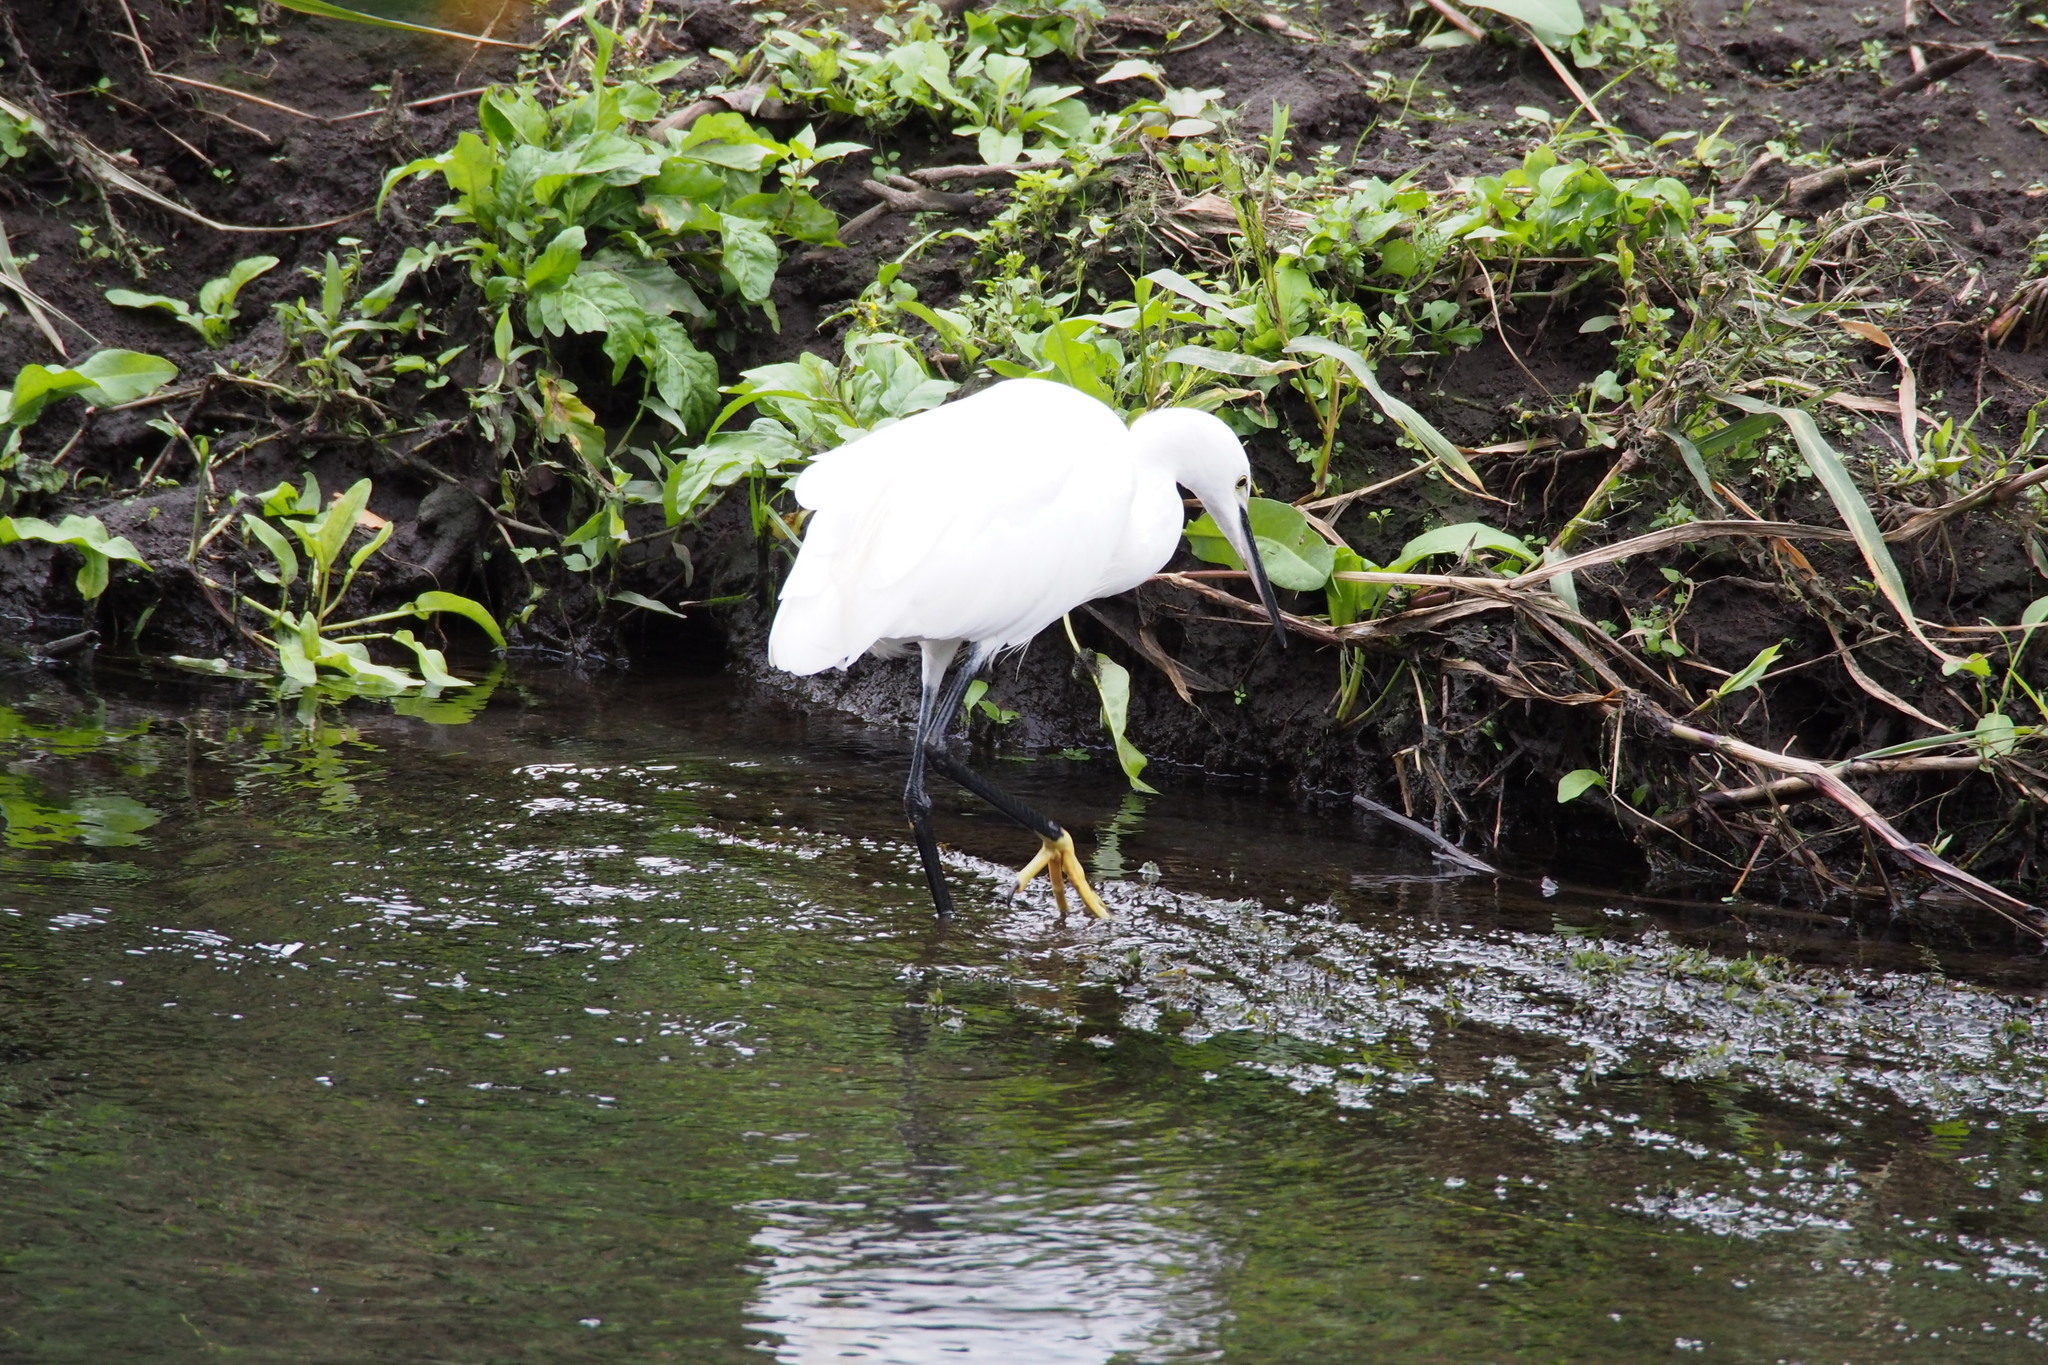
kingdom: Animalia
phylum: Chordata
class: Aves
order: Pelecaniformes
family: Ardeidae
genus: Egretta
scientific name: Egretta garzetta
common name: Little egret
